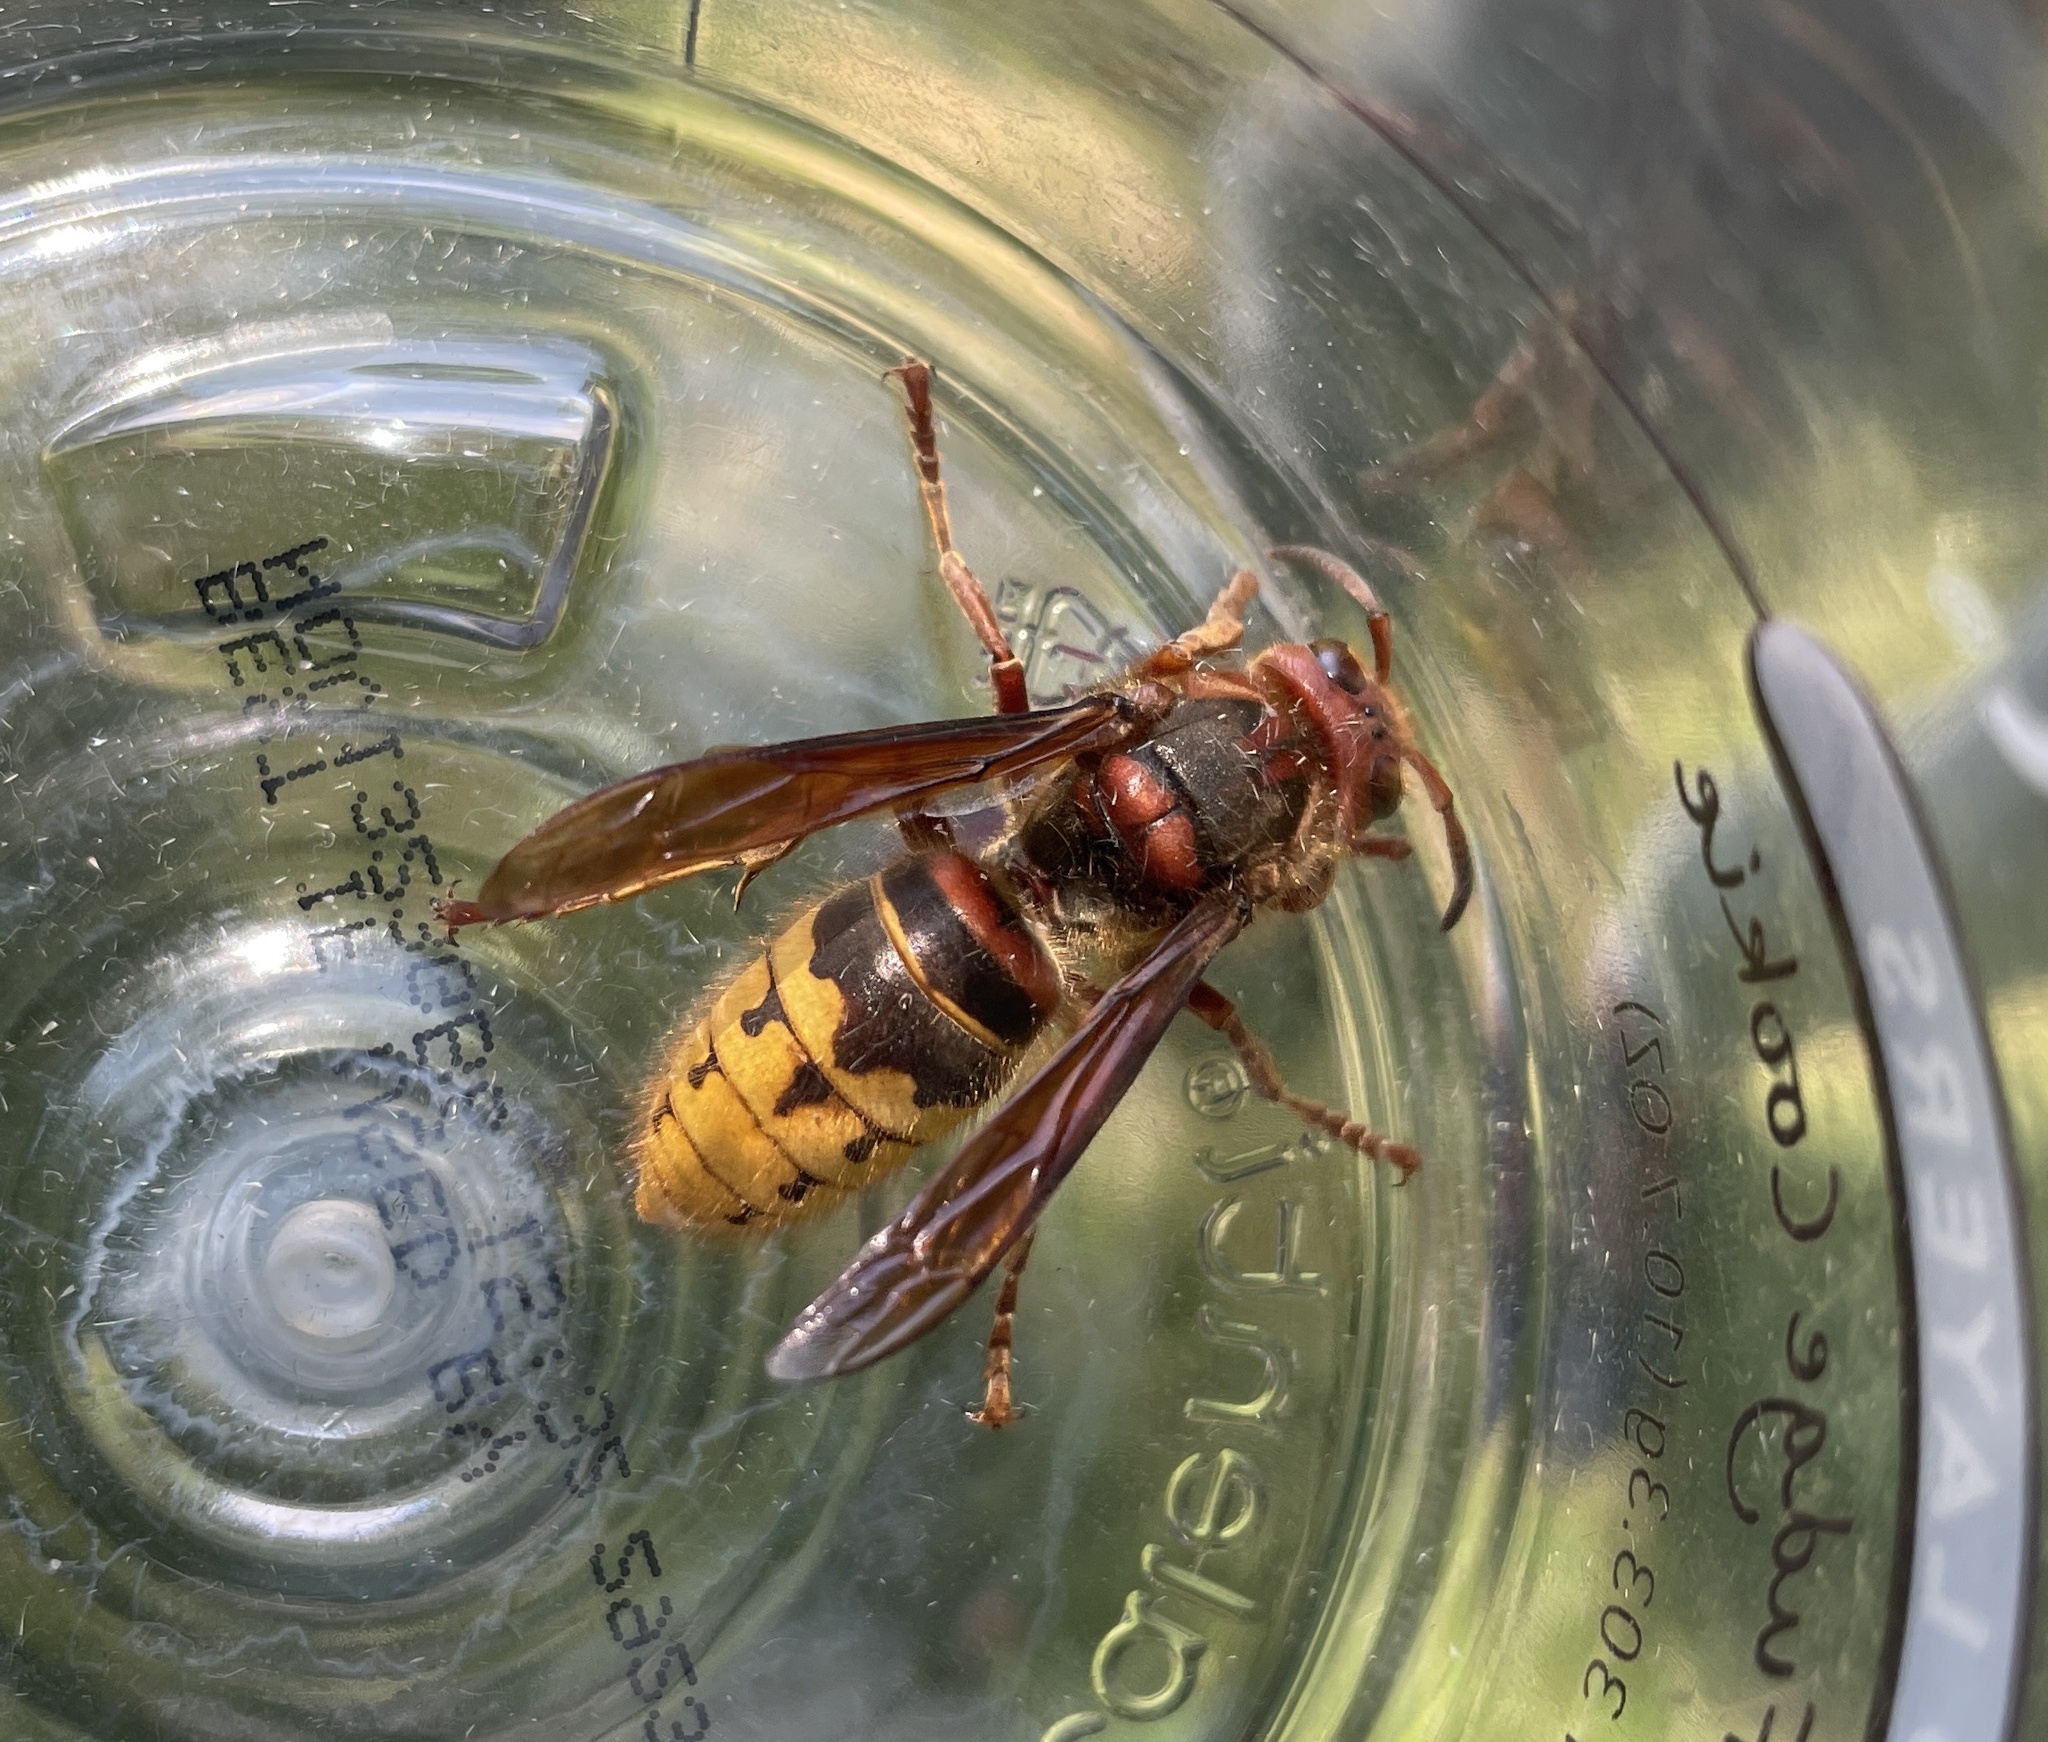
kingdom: Animalia
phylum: Arthropoda
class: Insecta
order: Hymenoptera
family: Vespidae
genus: Vespa
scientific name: Vespa crabro
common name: Hornet
